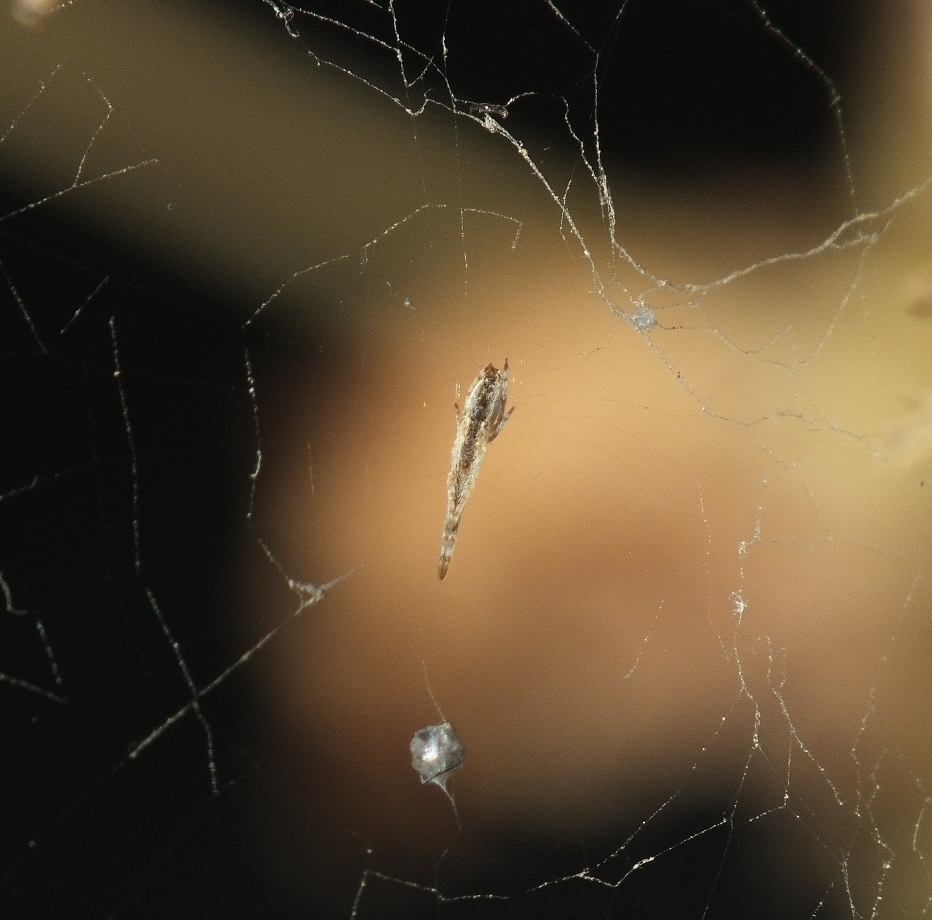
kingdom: Animalia
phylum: Arthropoda
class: Arachnida
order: Araneae
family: Uloboridae
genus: Uloborus
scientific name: Uloborus walckenaerius
